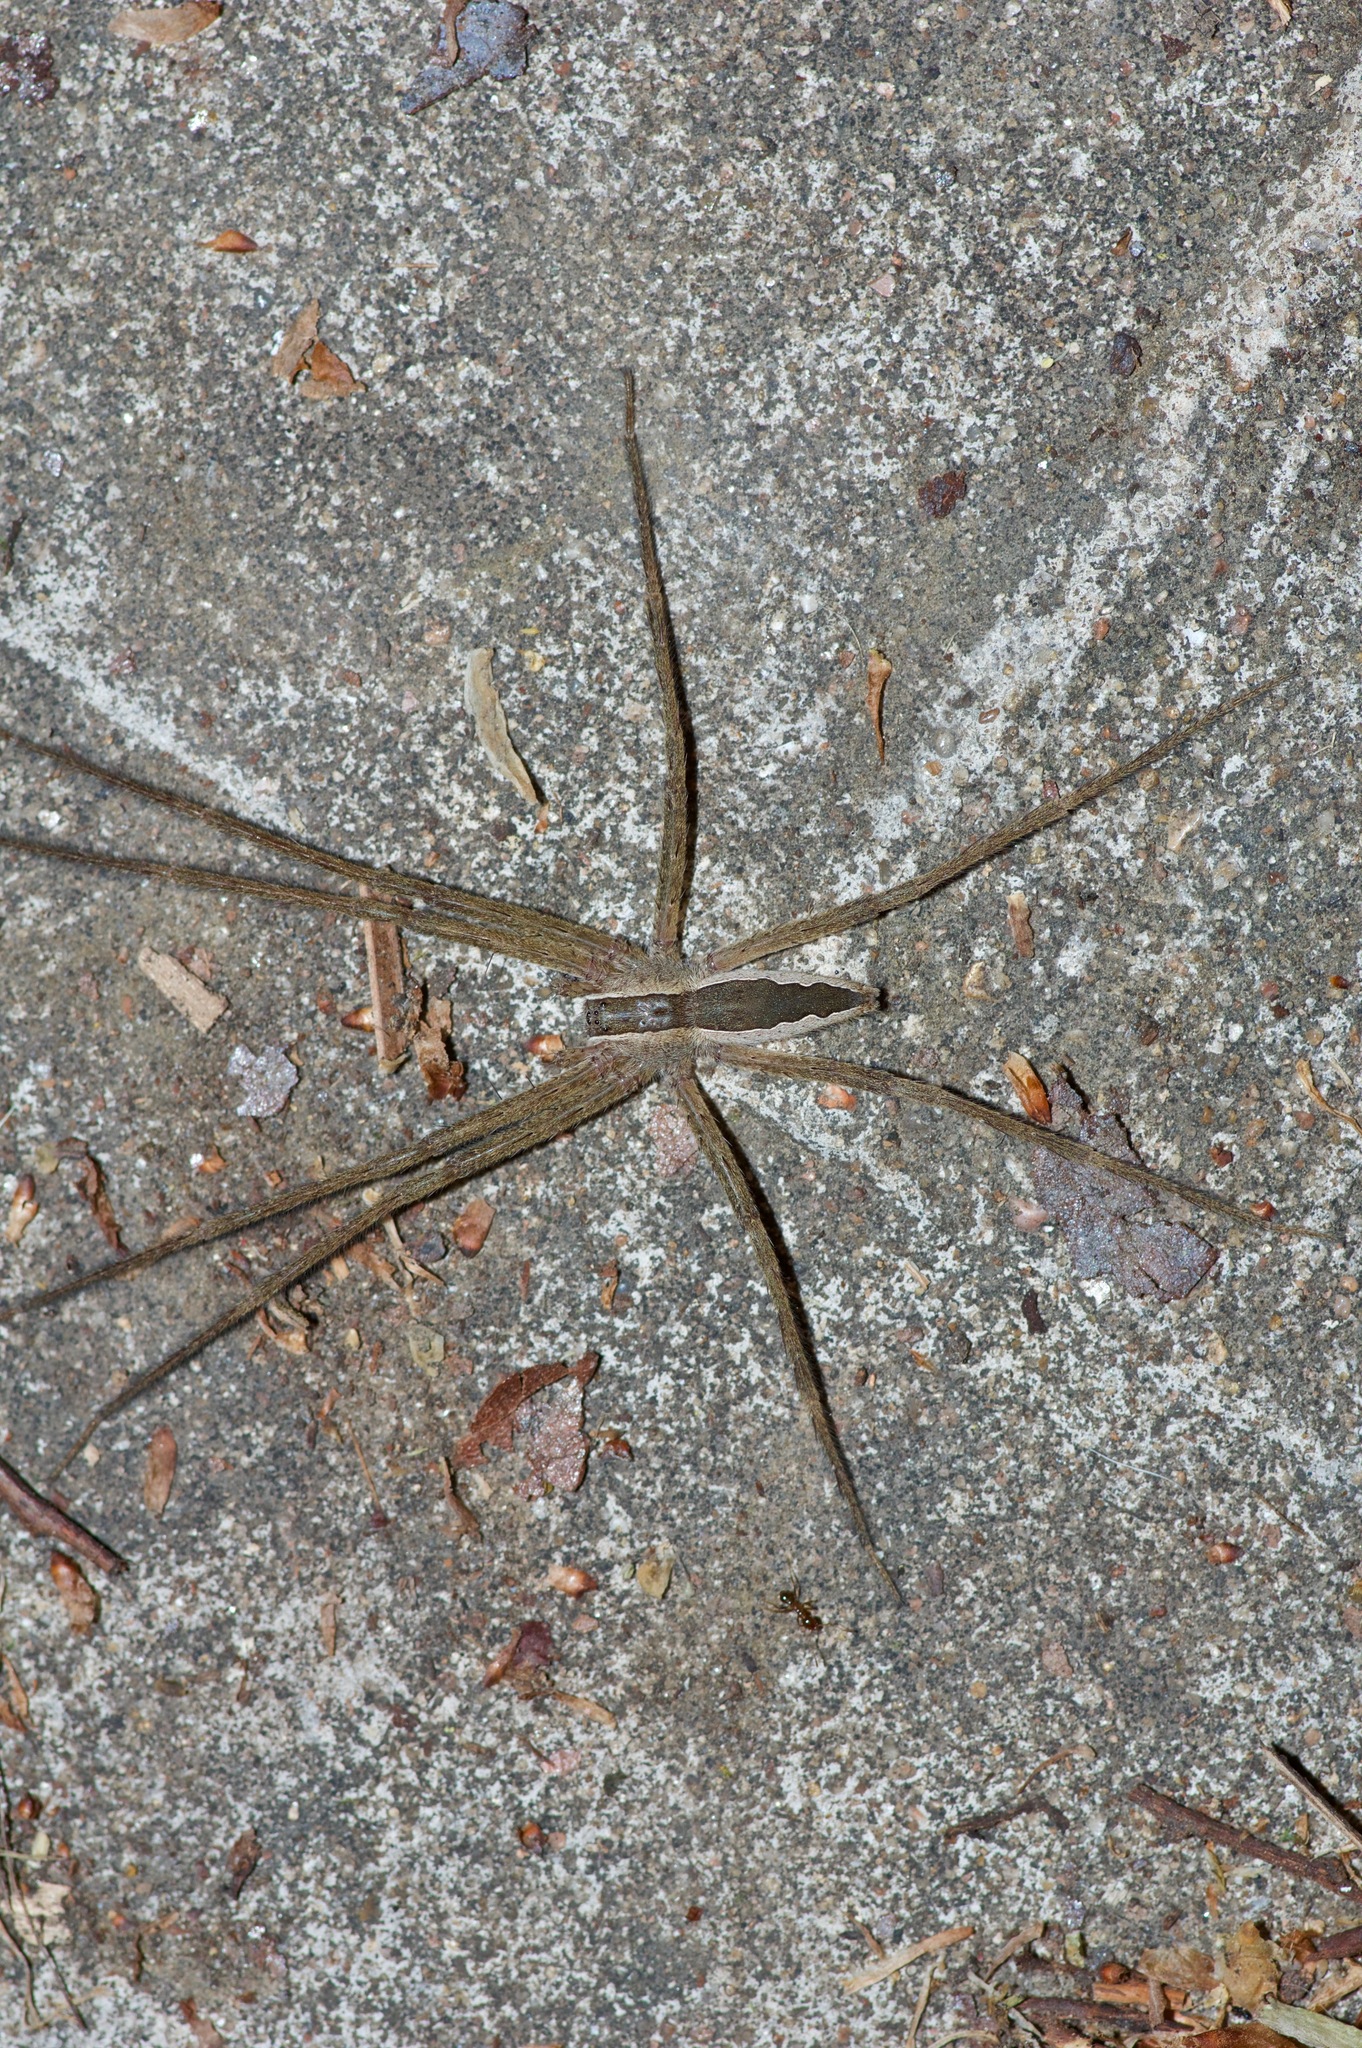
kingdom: Animalia
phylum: Arthropoda
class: Arachnida
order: Araneae
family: Pisauridae
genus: Pisaurina
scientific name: Pisaurina mira
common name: American nursery web spider
